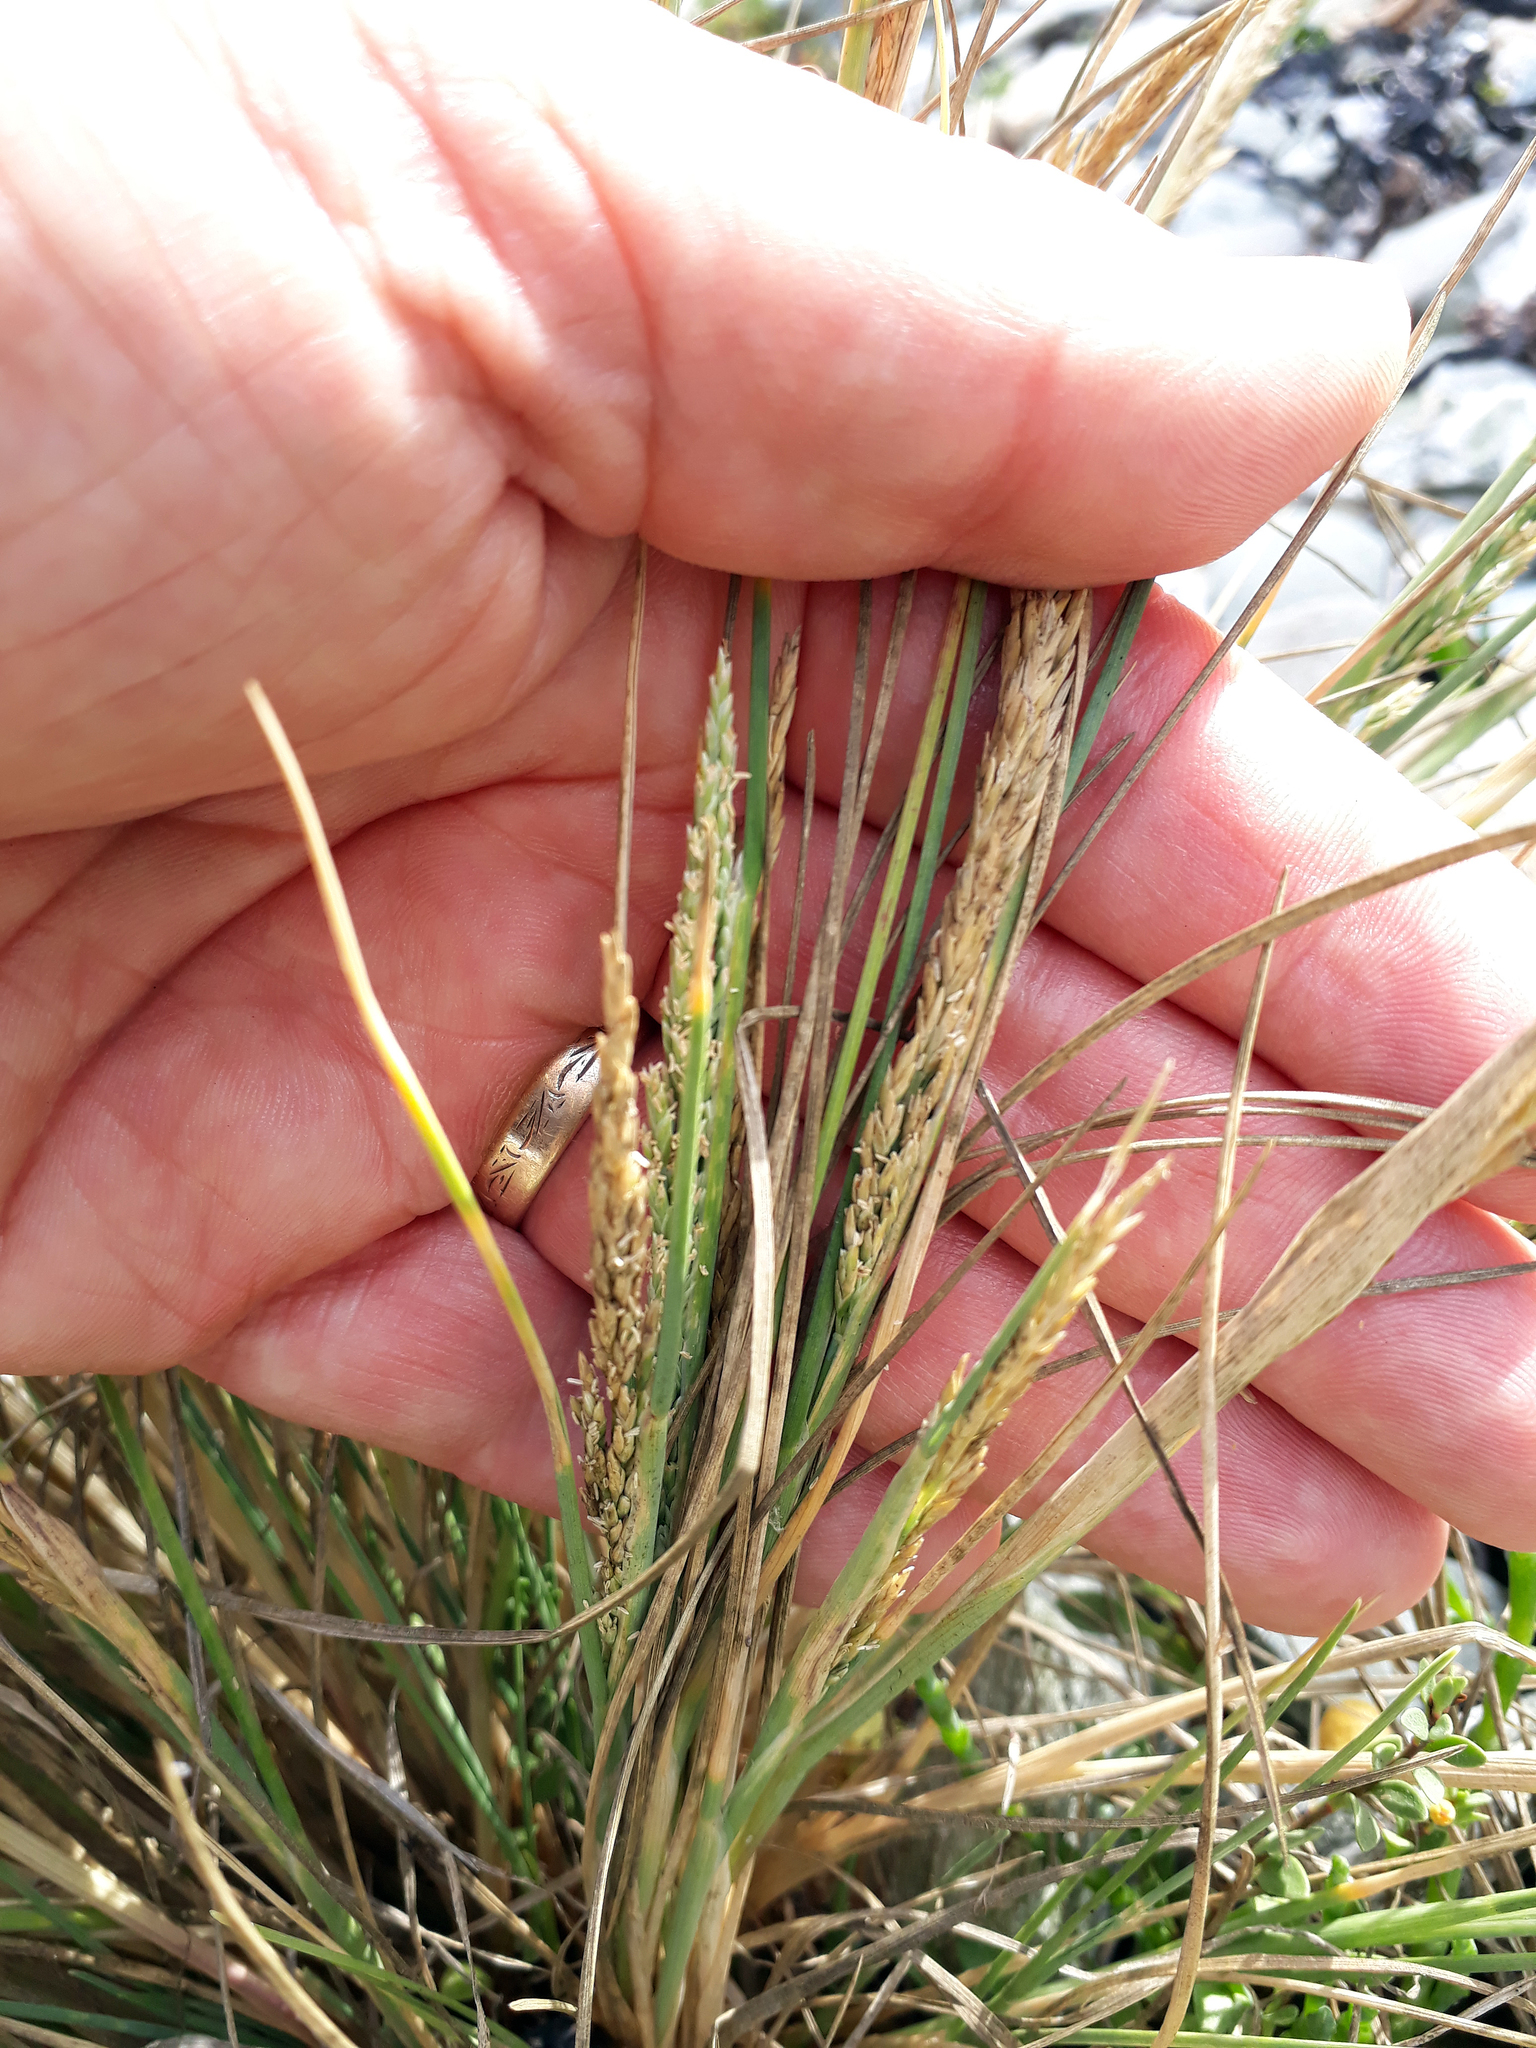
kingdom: Plantae
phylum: Tracheophyta
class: Liliopsida
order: Poales
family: Poaceae
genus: Puccinellia
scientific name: Puccinellia walkeri
